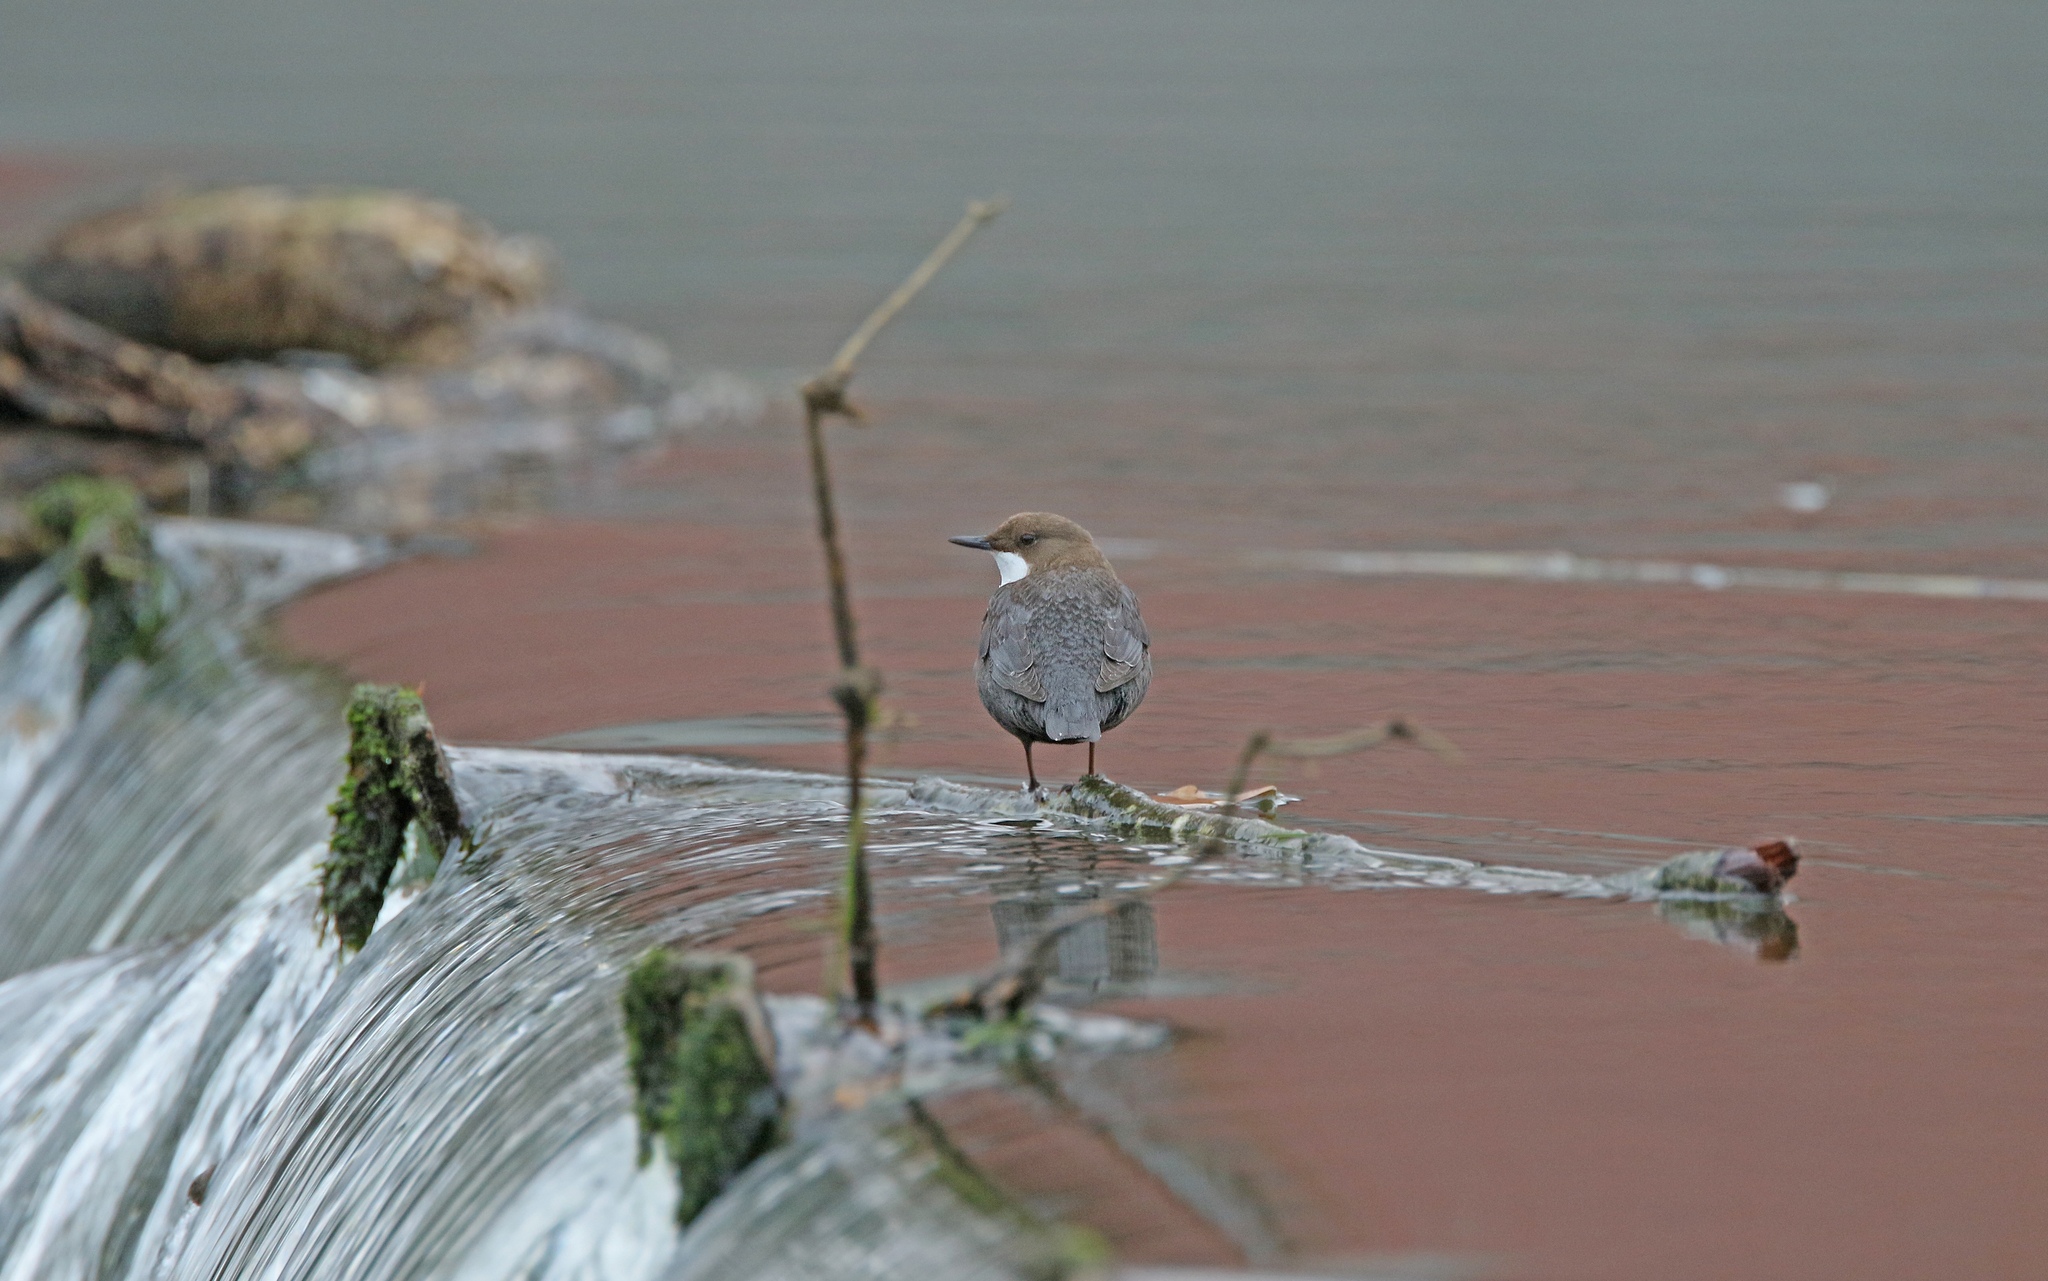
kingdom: Animalia
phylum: Chordata
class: Aves
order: Passeriformes
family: Cinclidae
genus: Cinclus
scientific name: Cinclus cinclus
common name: White-throated dipper
